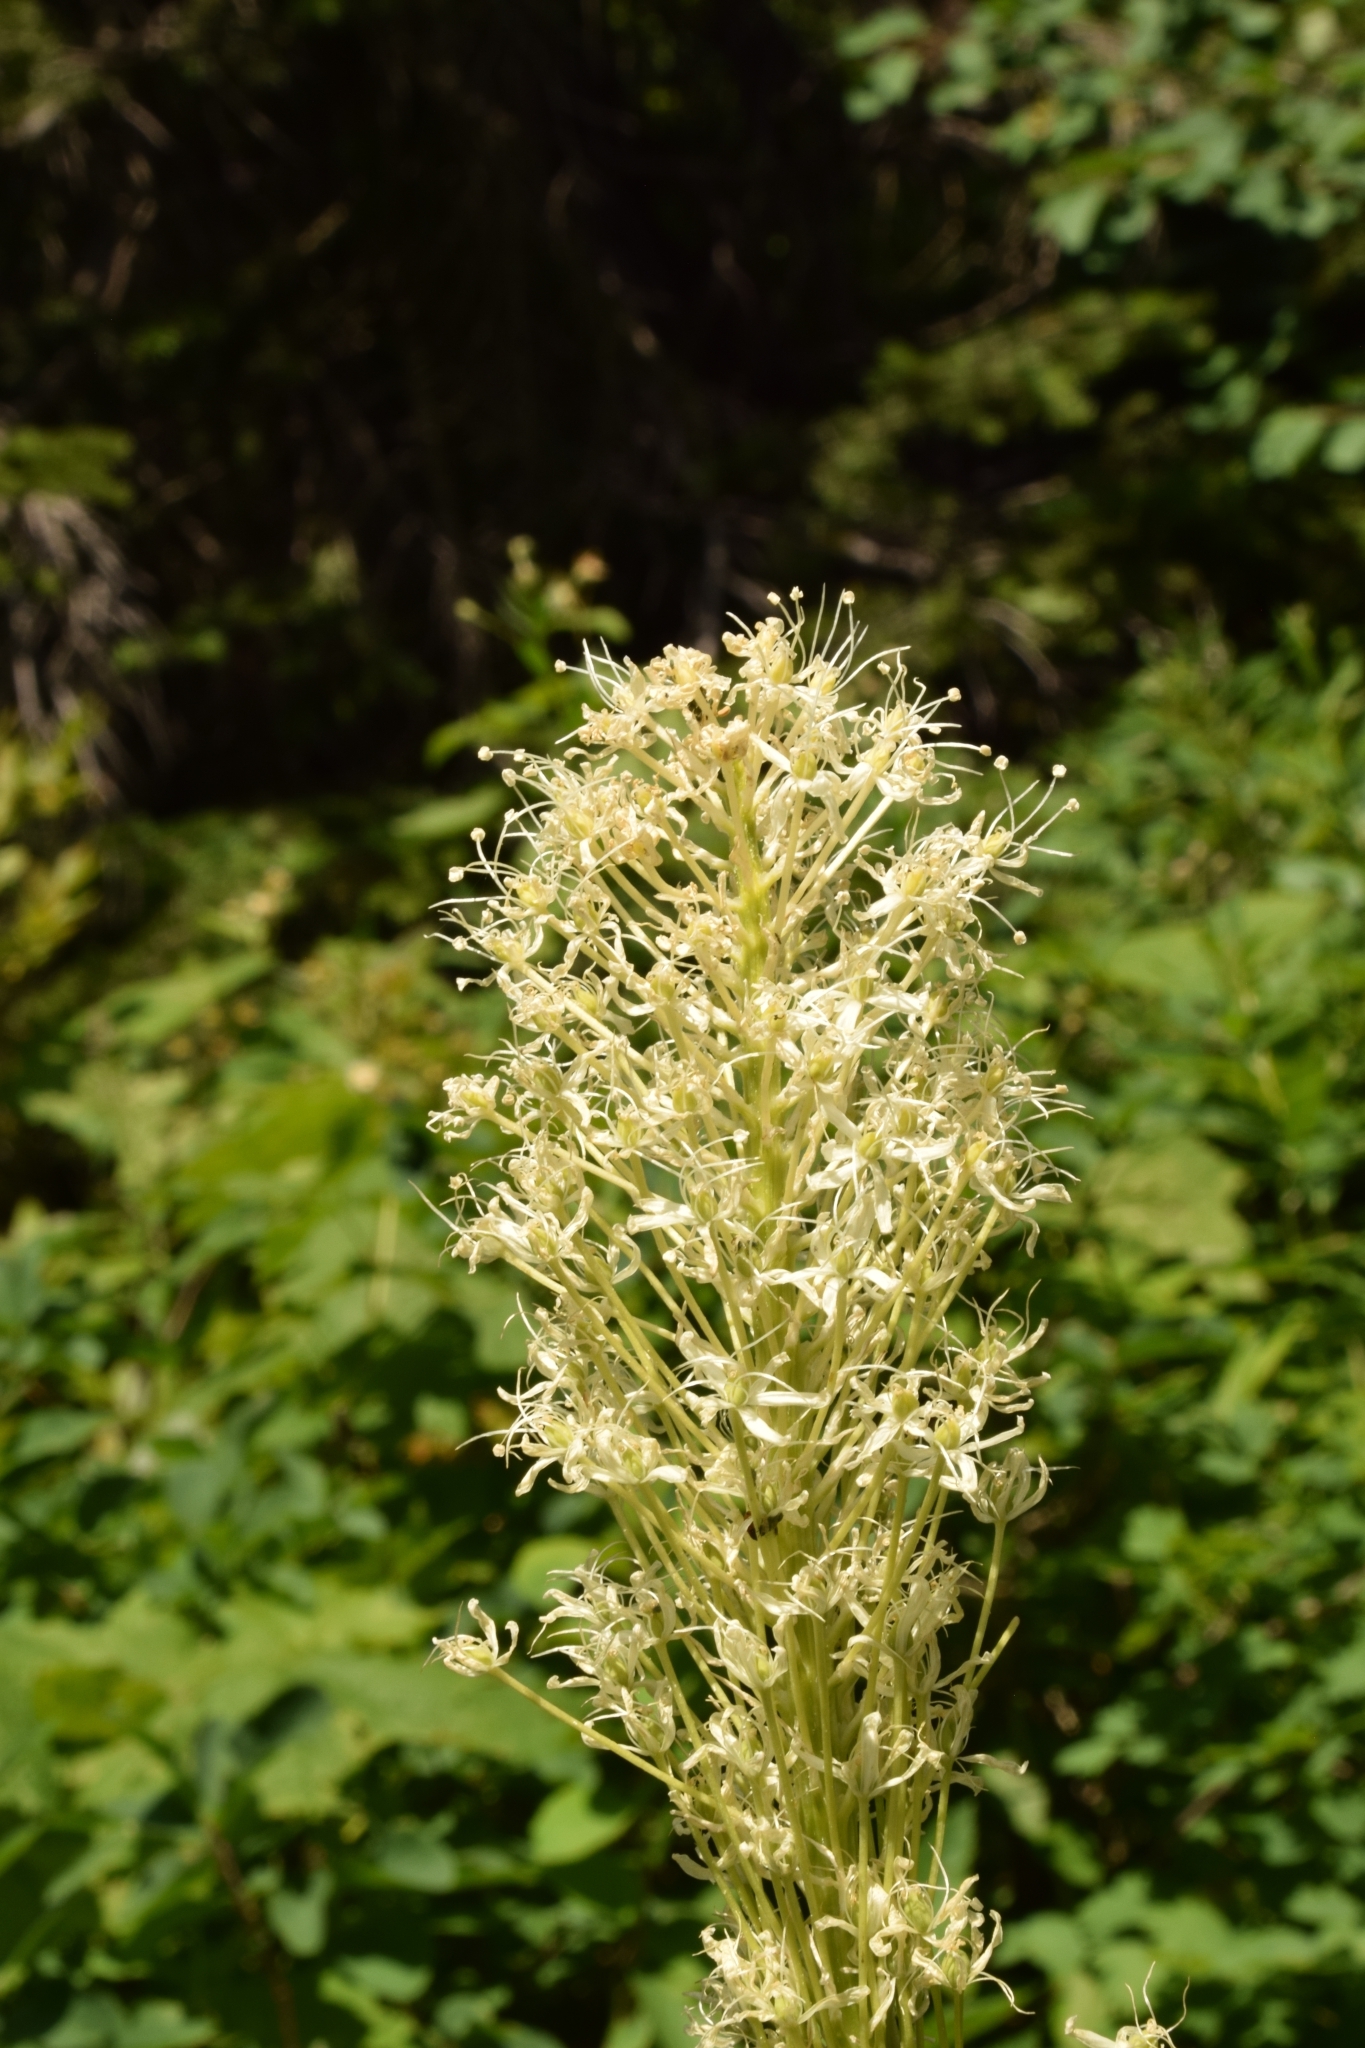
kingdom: Plantae
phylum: Tracheophyta
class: Liliopsida
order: Liliales
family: Melanthiaceae
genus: Xerophyllum
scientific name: Xerophyllum tenax
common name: Bear-grass
